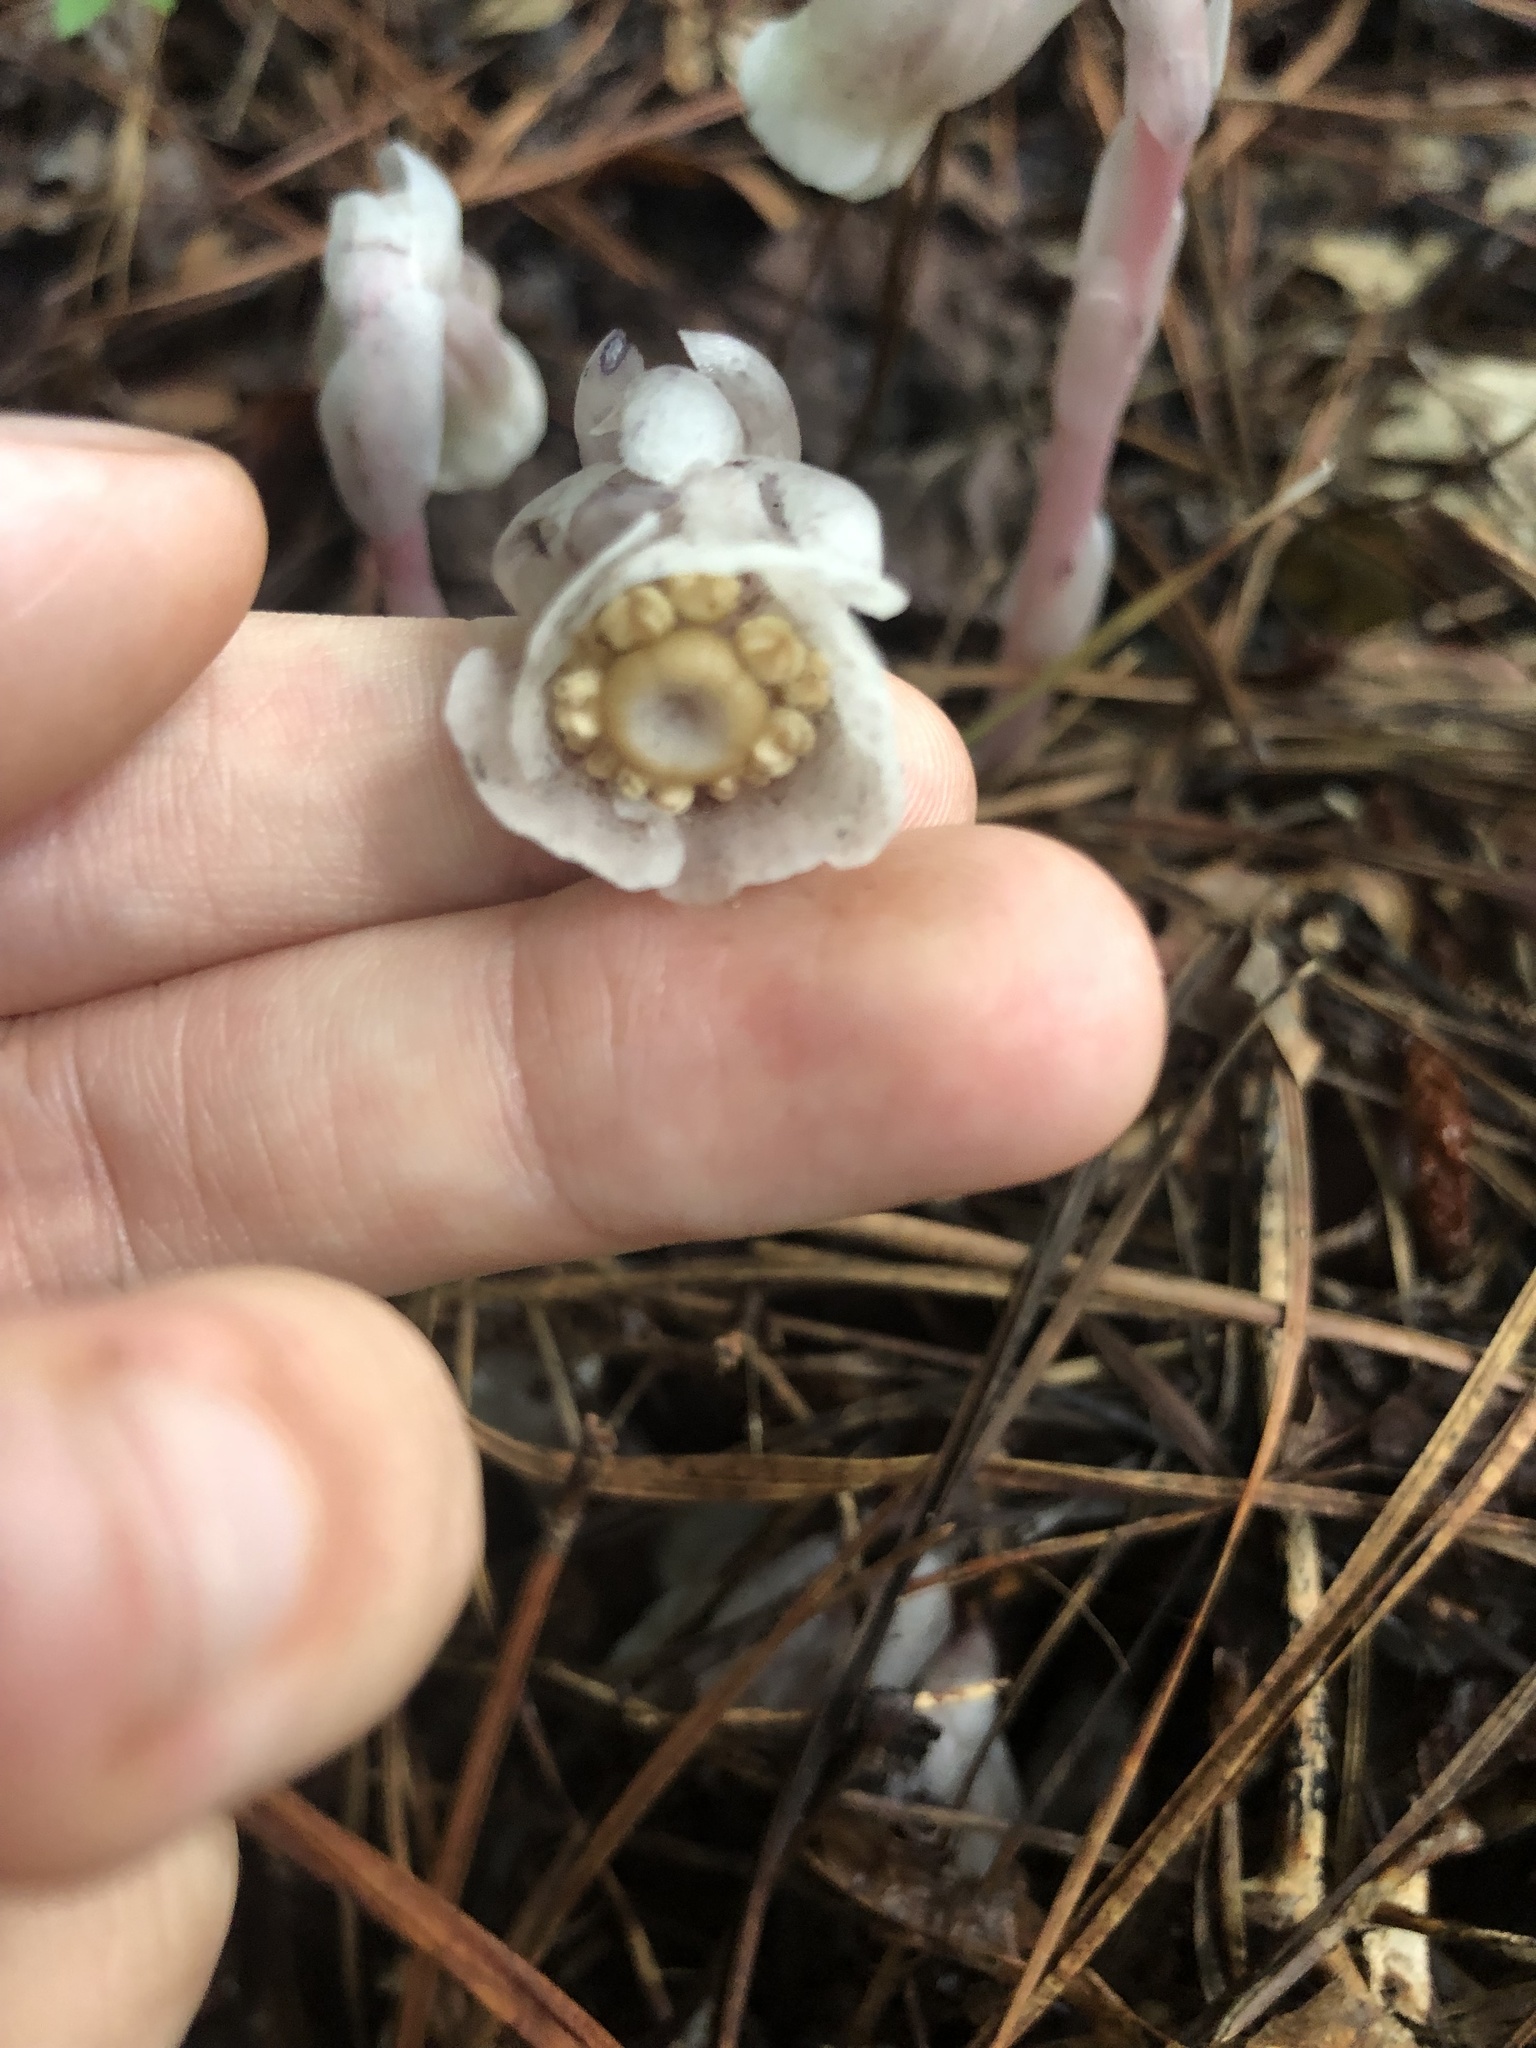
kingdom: Plantae
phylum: Tracheophyta
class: Magnoliopsida
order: Ericales
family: Ericaceae
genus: Monotropa
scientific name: Monotropa uniflora
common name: Convulsion root
